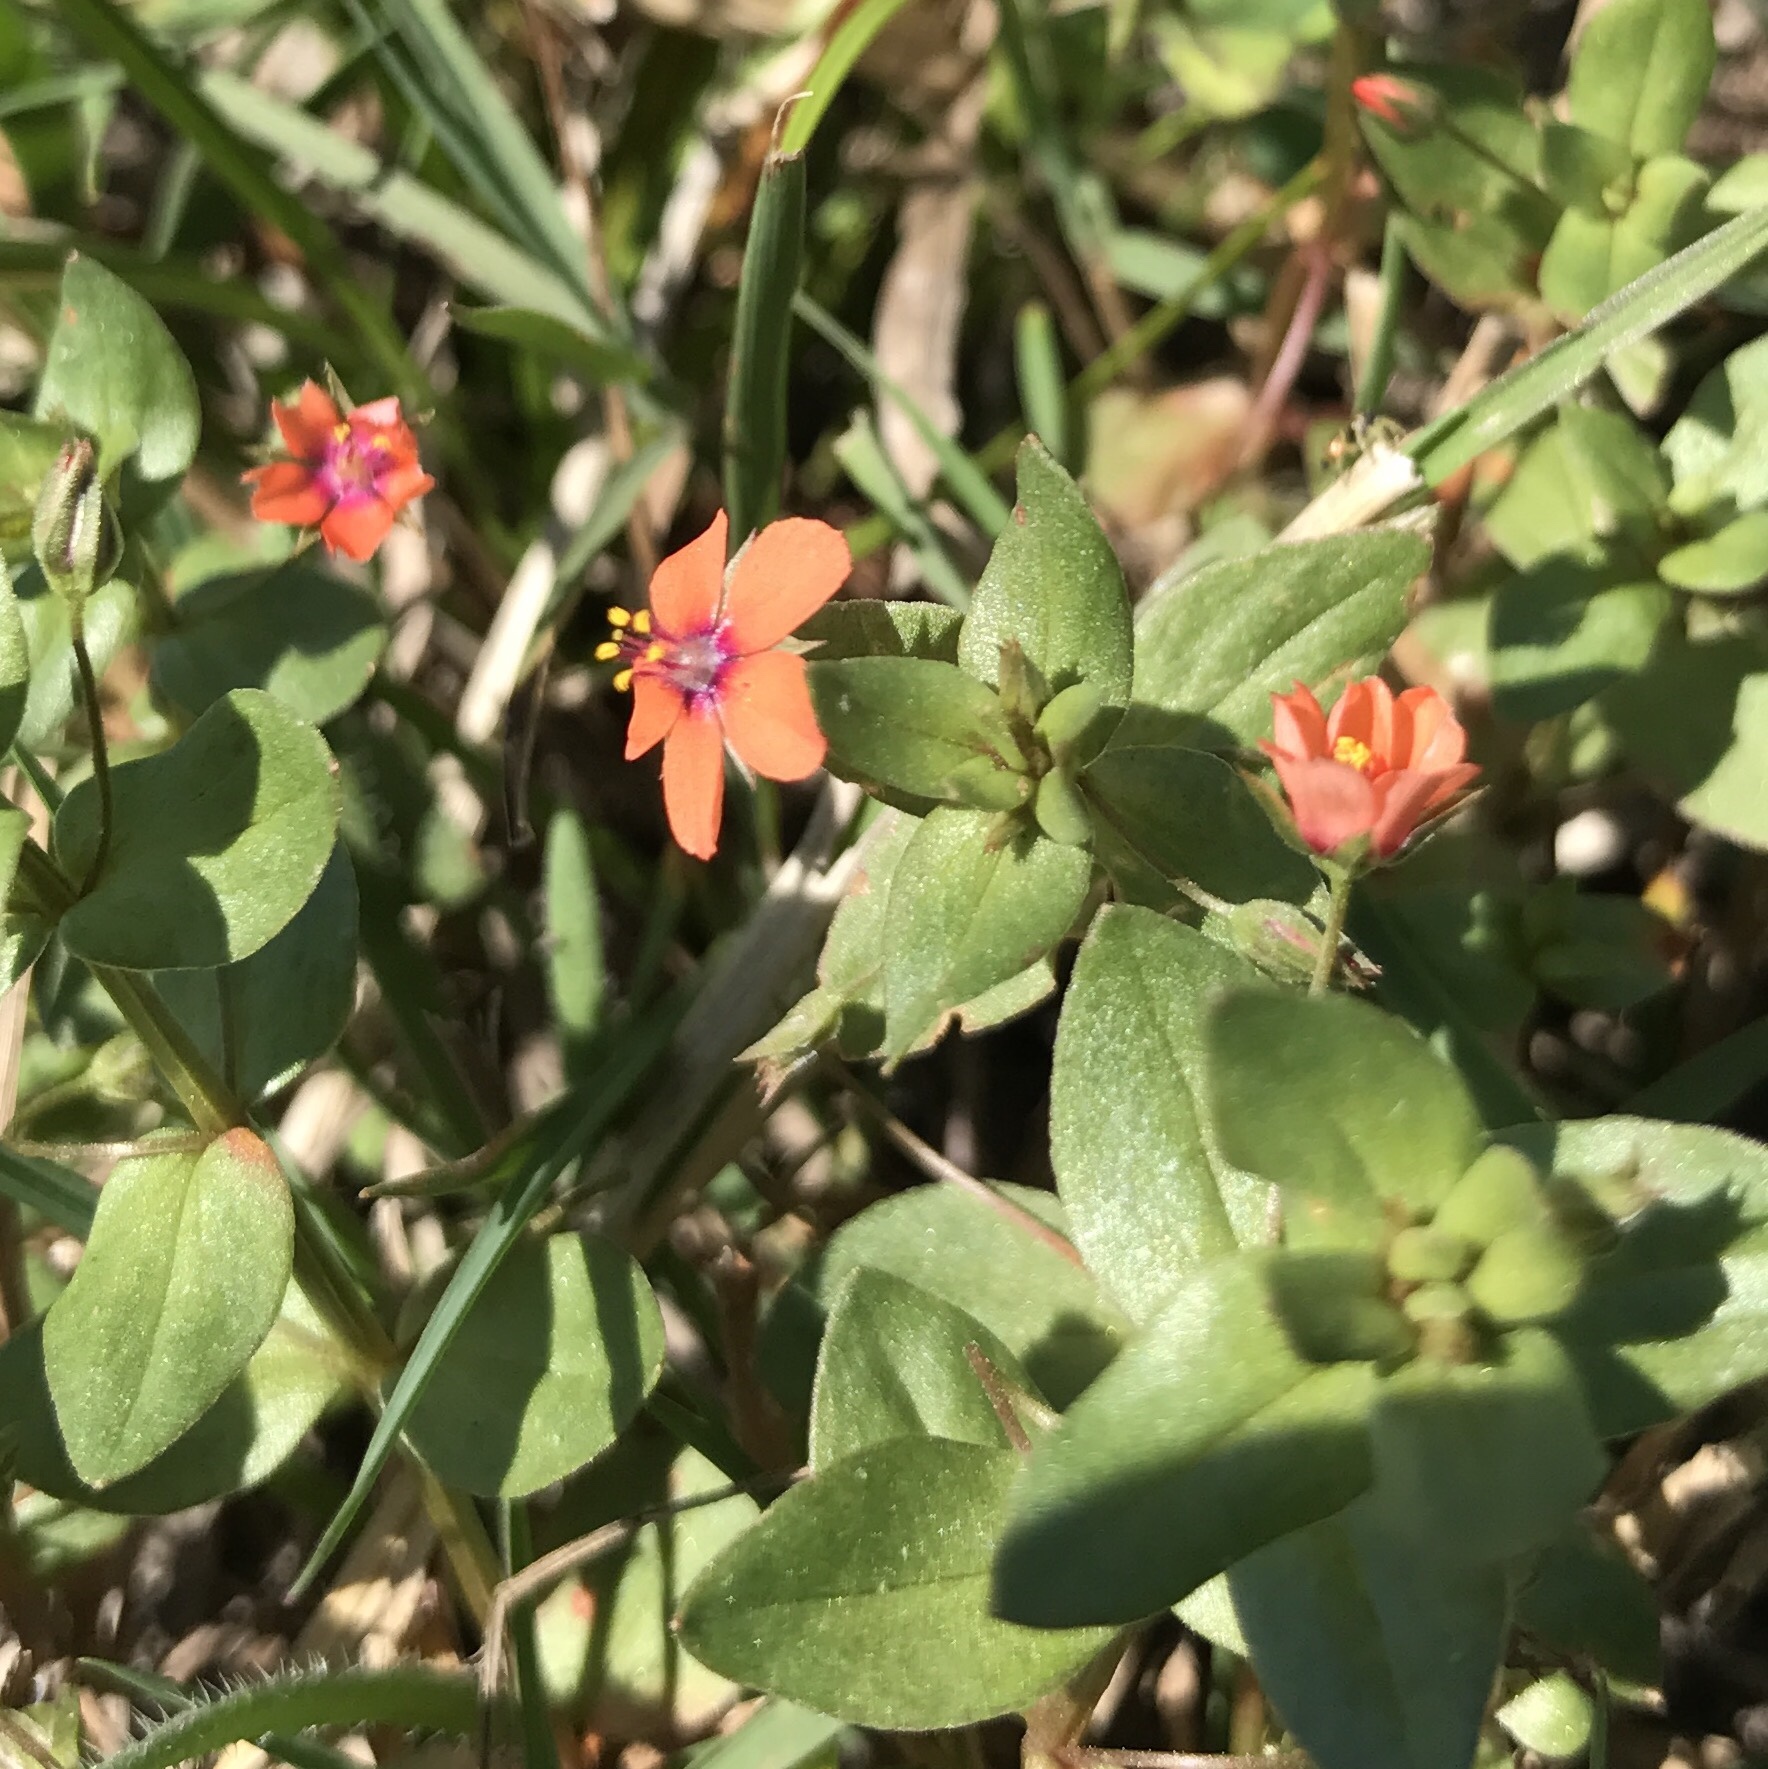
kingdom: Plantae
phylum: Tracheophyta
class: Magnoliopsida
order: Ericales
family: Primulaceae
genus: Lysimachia
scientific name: Lysimachia arvensis
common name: Scarlet pimpernel
